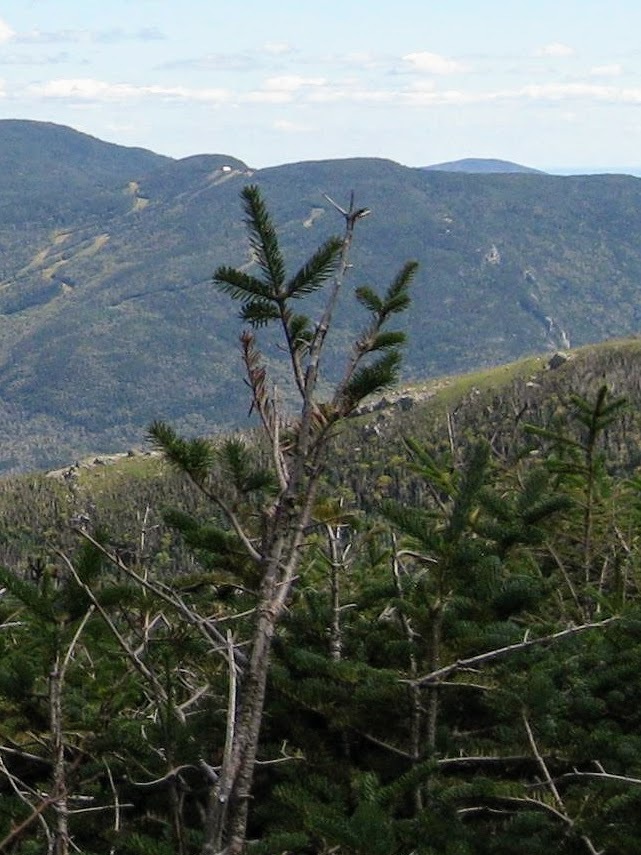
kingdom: Plantae
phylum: Tracheophyta
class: Pinopsida
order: Pinales
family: Pinaceae
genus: Abies
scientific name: Abies balsamea
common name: Balsam fir
